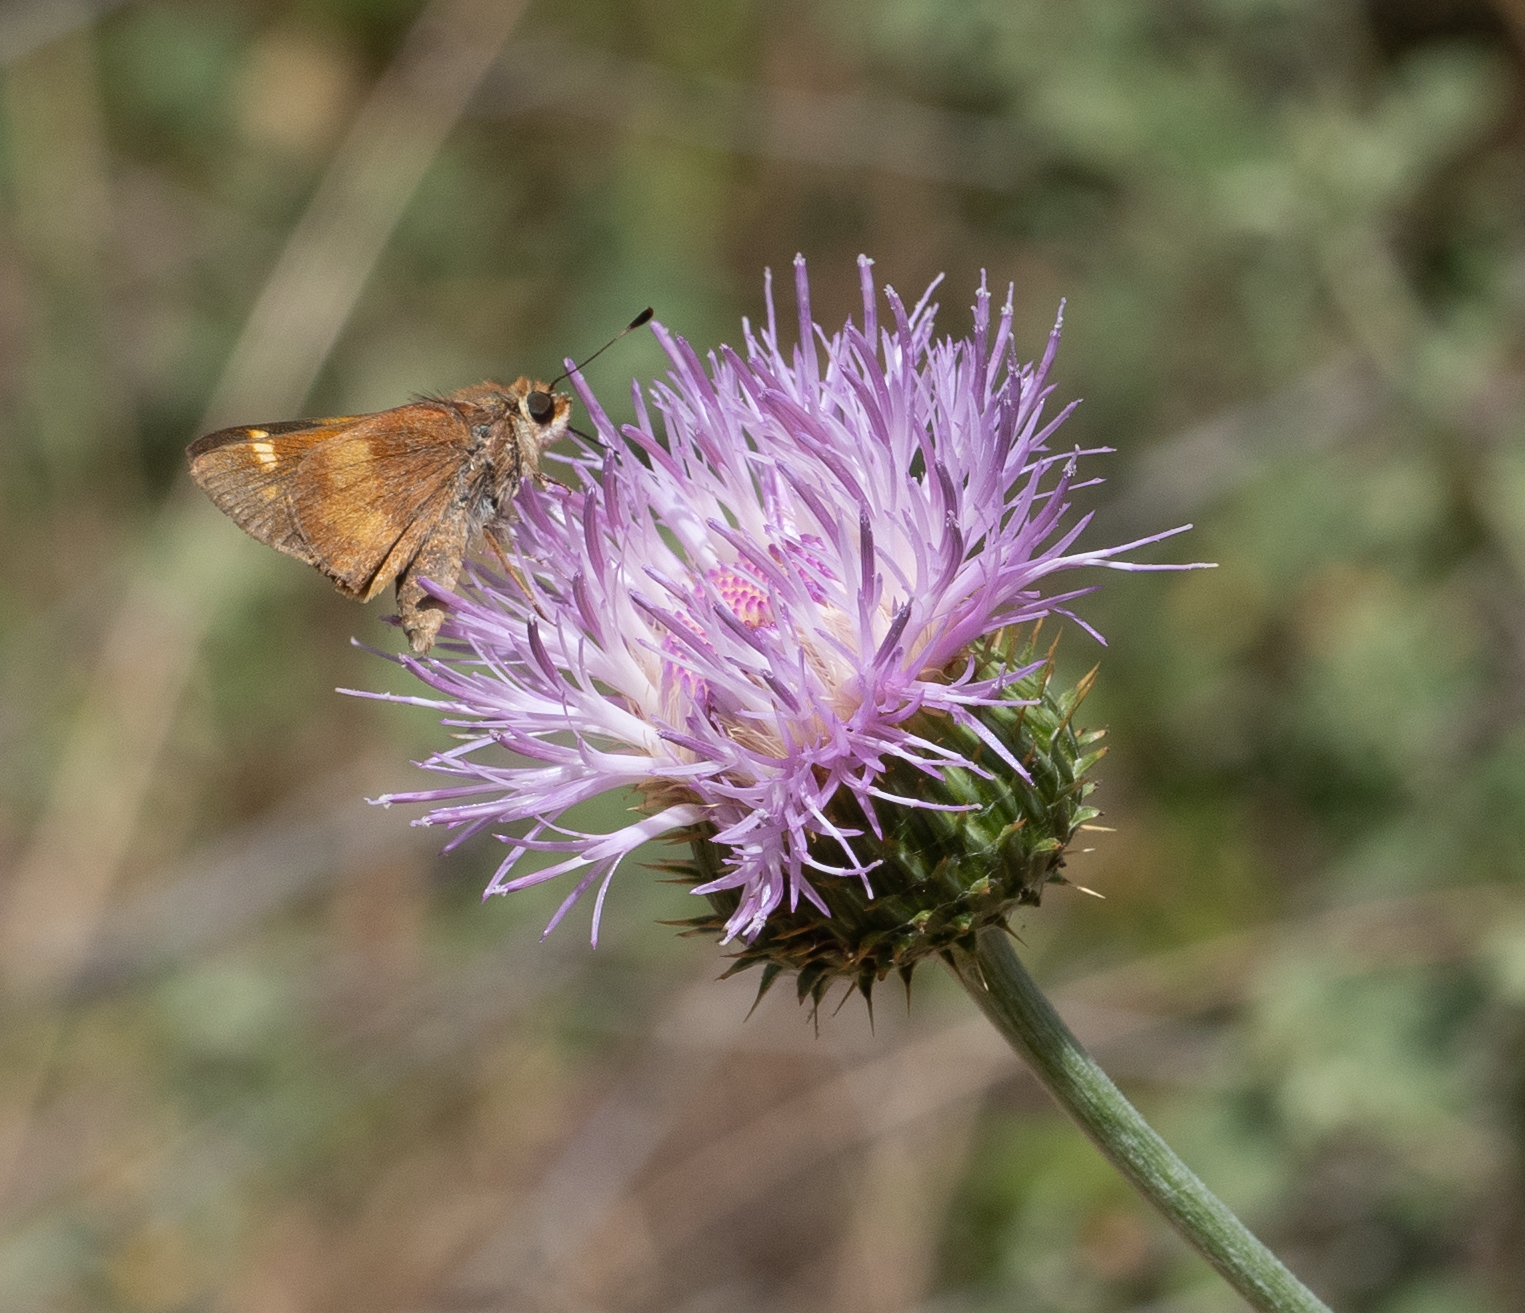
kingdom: Animalia
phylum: Arthropoda
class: Insecta
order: Lepidoptera
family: Hesperiidae
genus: Lon
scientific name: Lon melane
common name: Umber skipper
